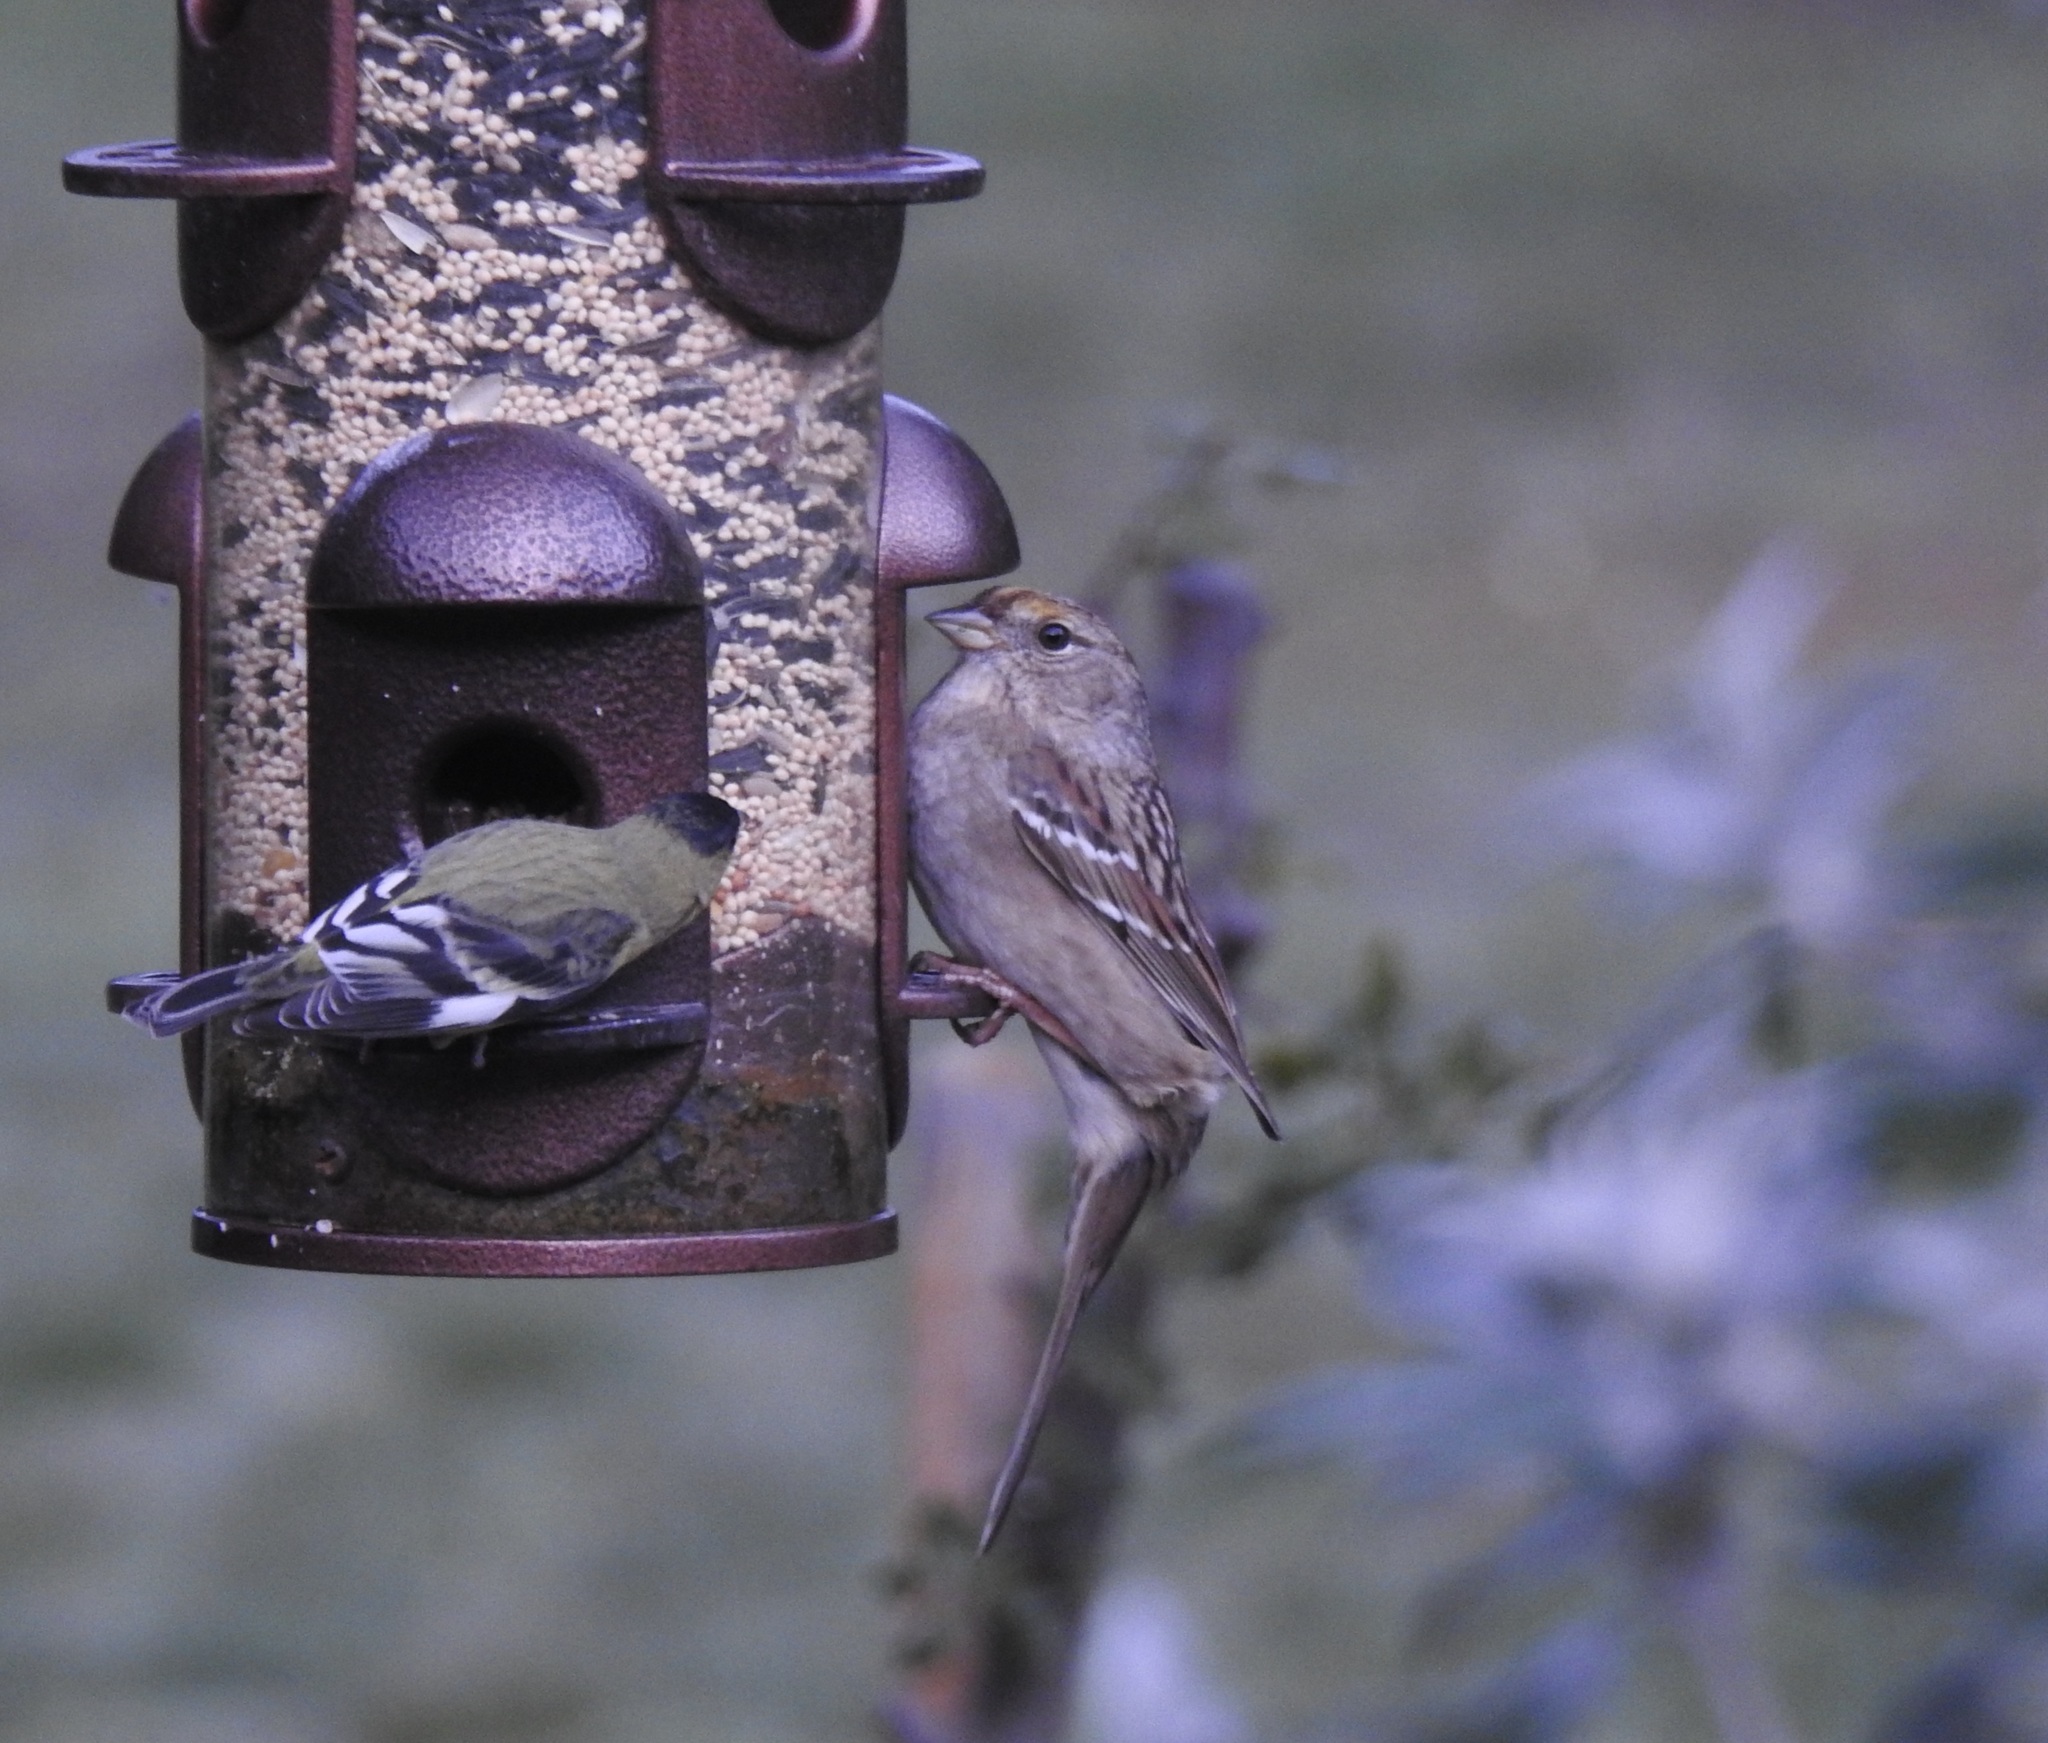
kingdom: Animalia
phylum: Chordata
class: Aves
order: Passeriformes
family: Fringillidae
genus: Spinus
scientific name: Spinus psaltria
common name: Lesser goldfinch
